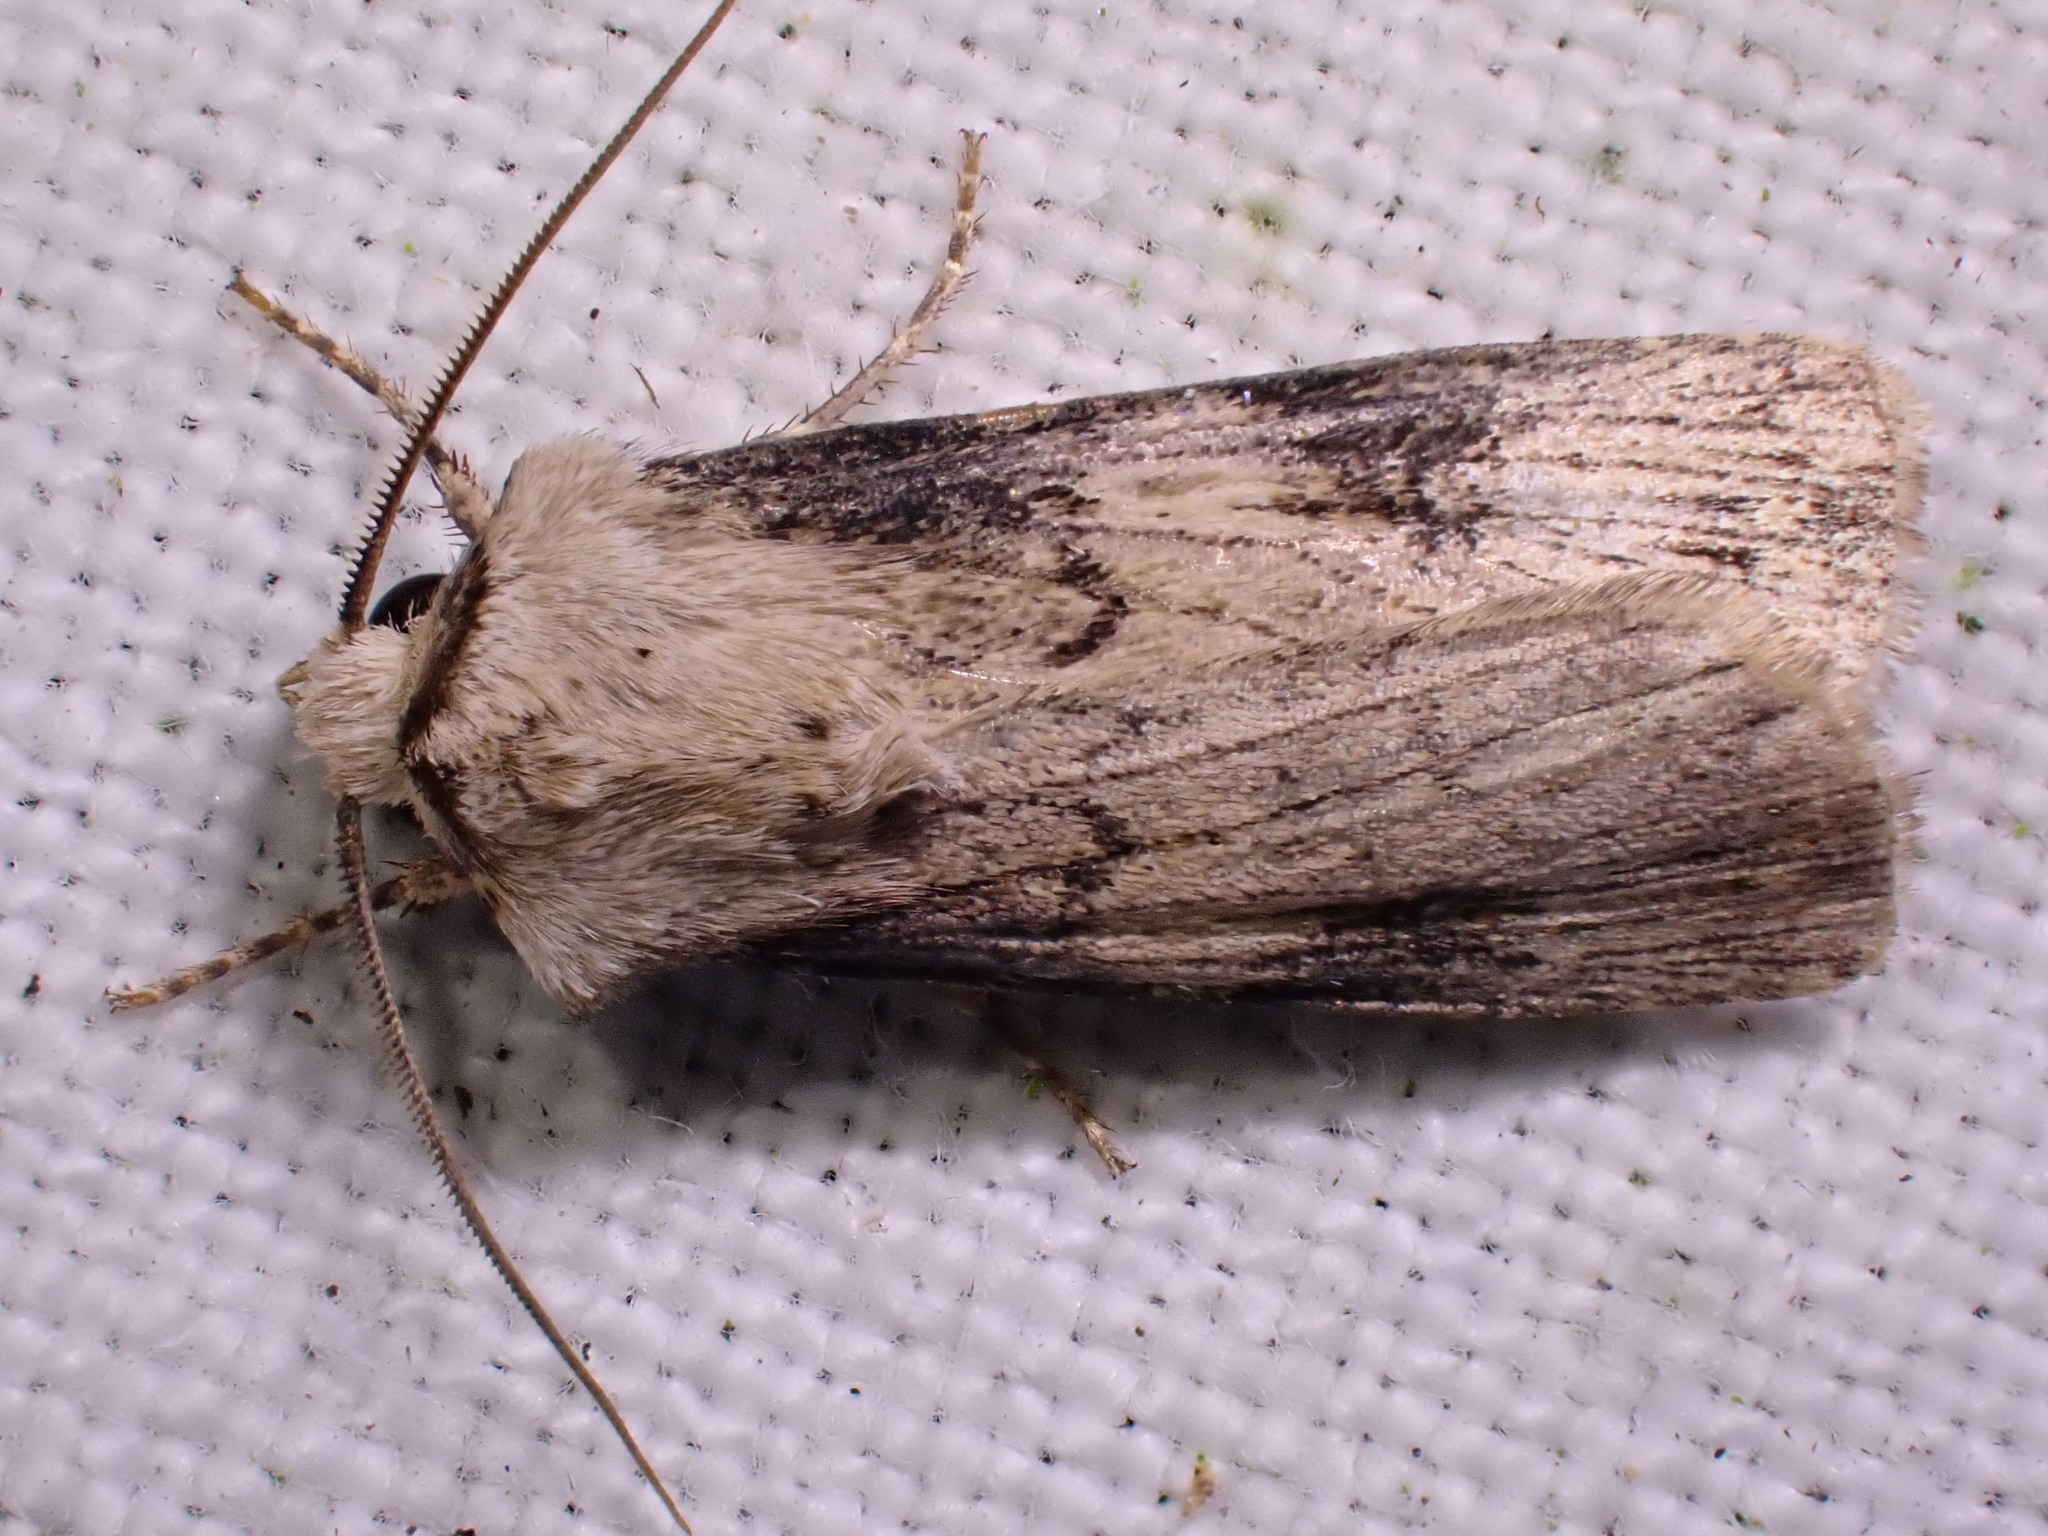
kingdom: Animalia
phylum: Arthropoda
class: Insecta
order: Lepidoptera
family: Noctuidae
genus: Agrotis
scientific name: Agrotis puta
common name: Shuttle-shaped dart
